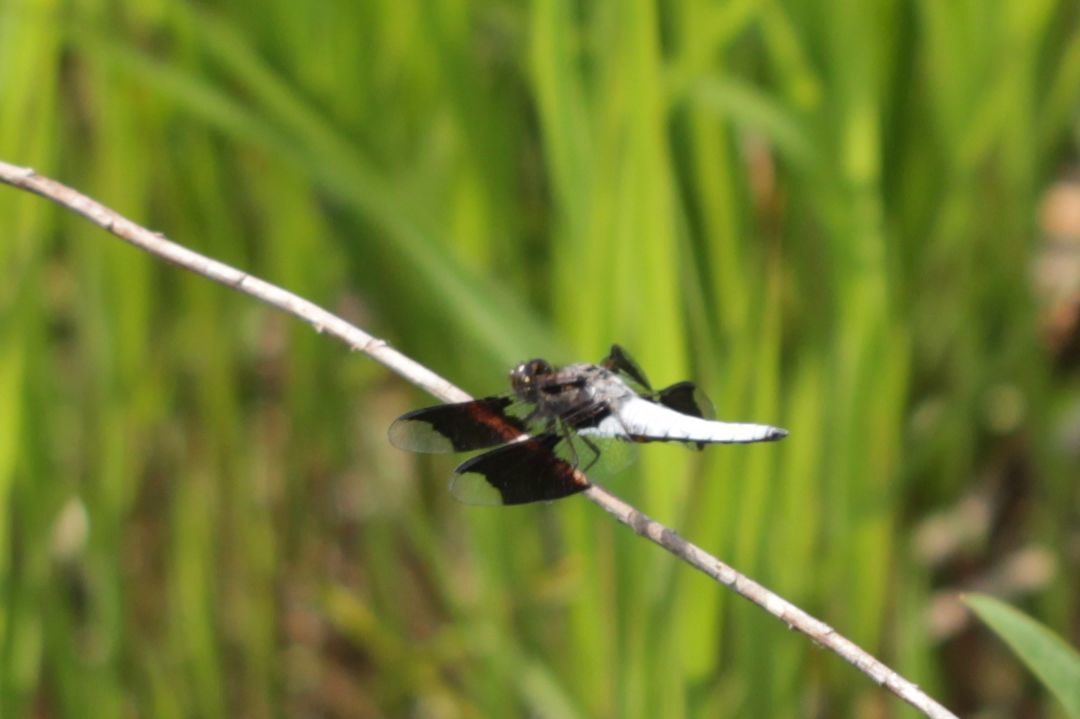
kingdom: Animalia
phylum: Arthropoda
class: Insecta
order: Odonata
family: Libellulidae
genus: Plathemis
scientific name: Plathemis lydia
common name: Common whitetail
